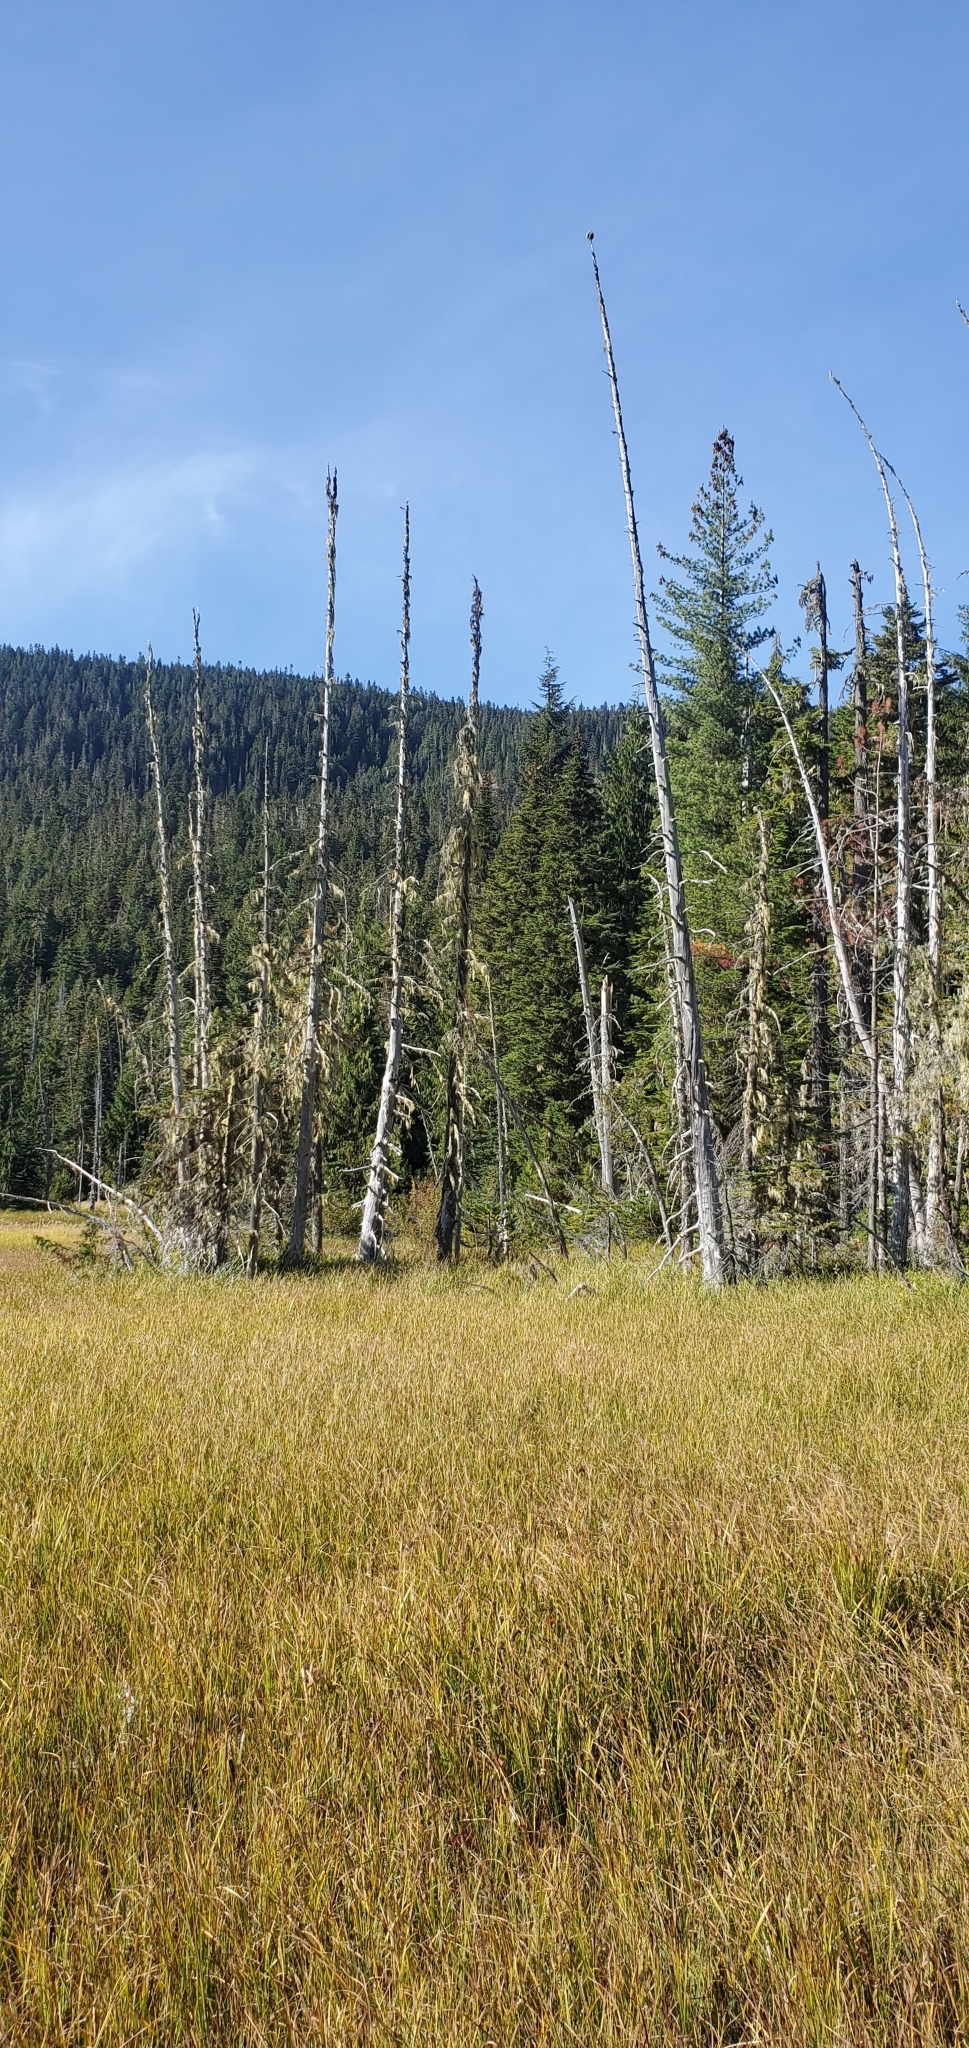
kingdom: Fungi
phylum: Ascomycota
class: Lecanoromycetes
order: Caliciales
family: Caliciaceae
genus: Acroscyphus
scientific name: Acroscyphus sphaerophoroides
